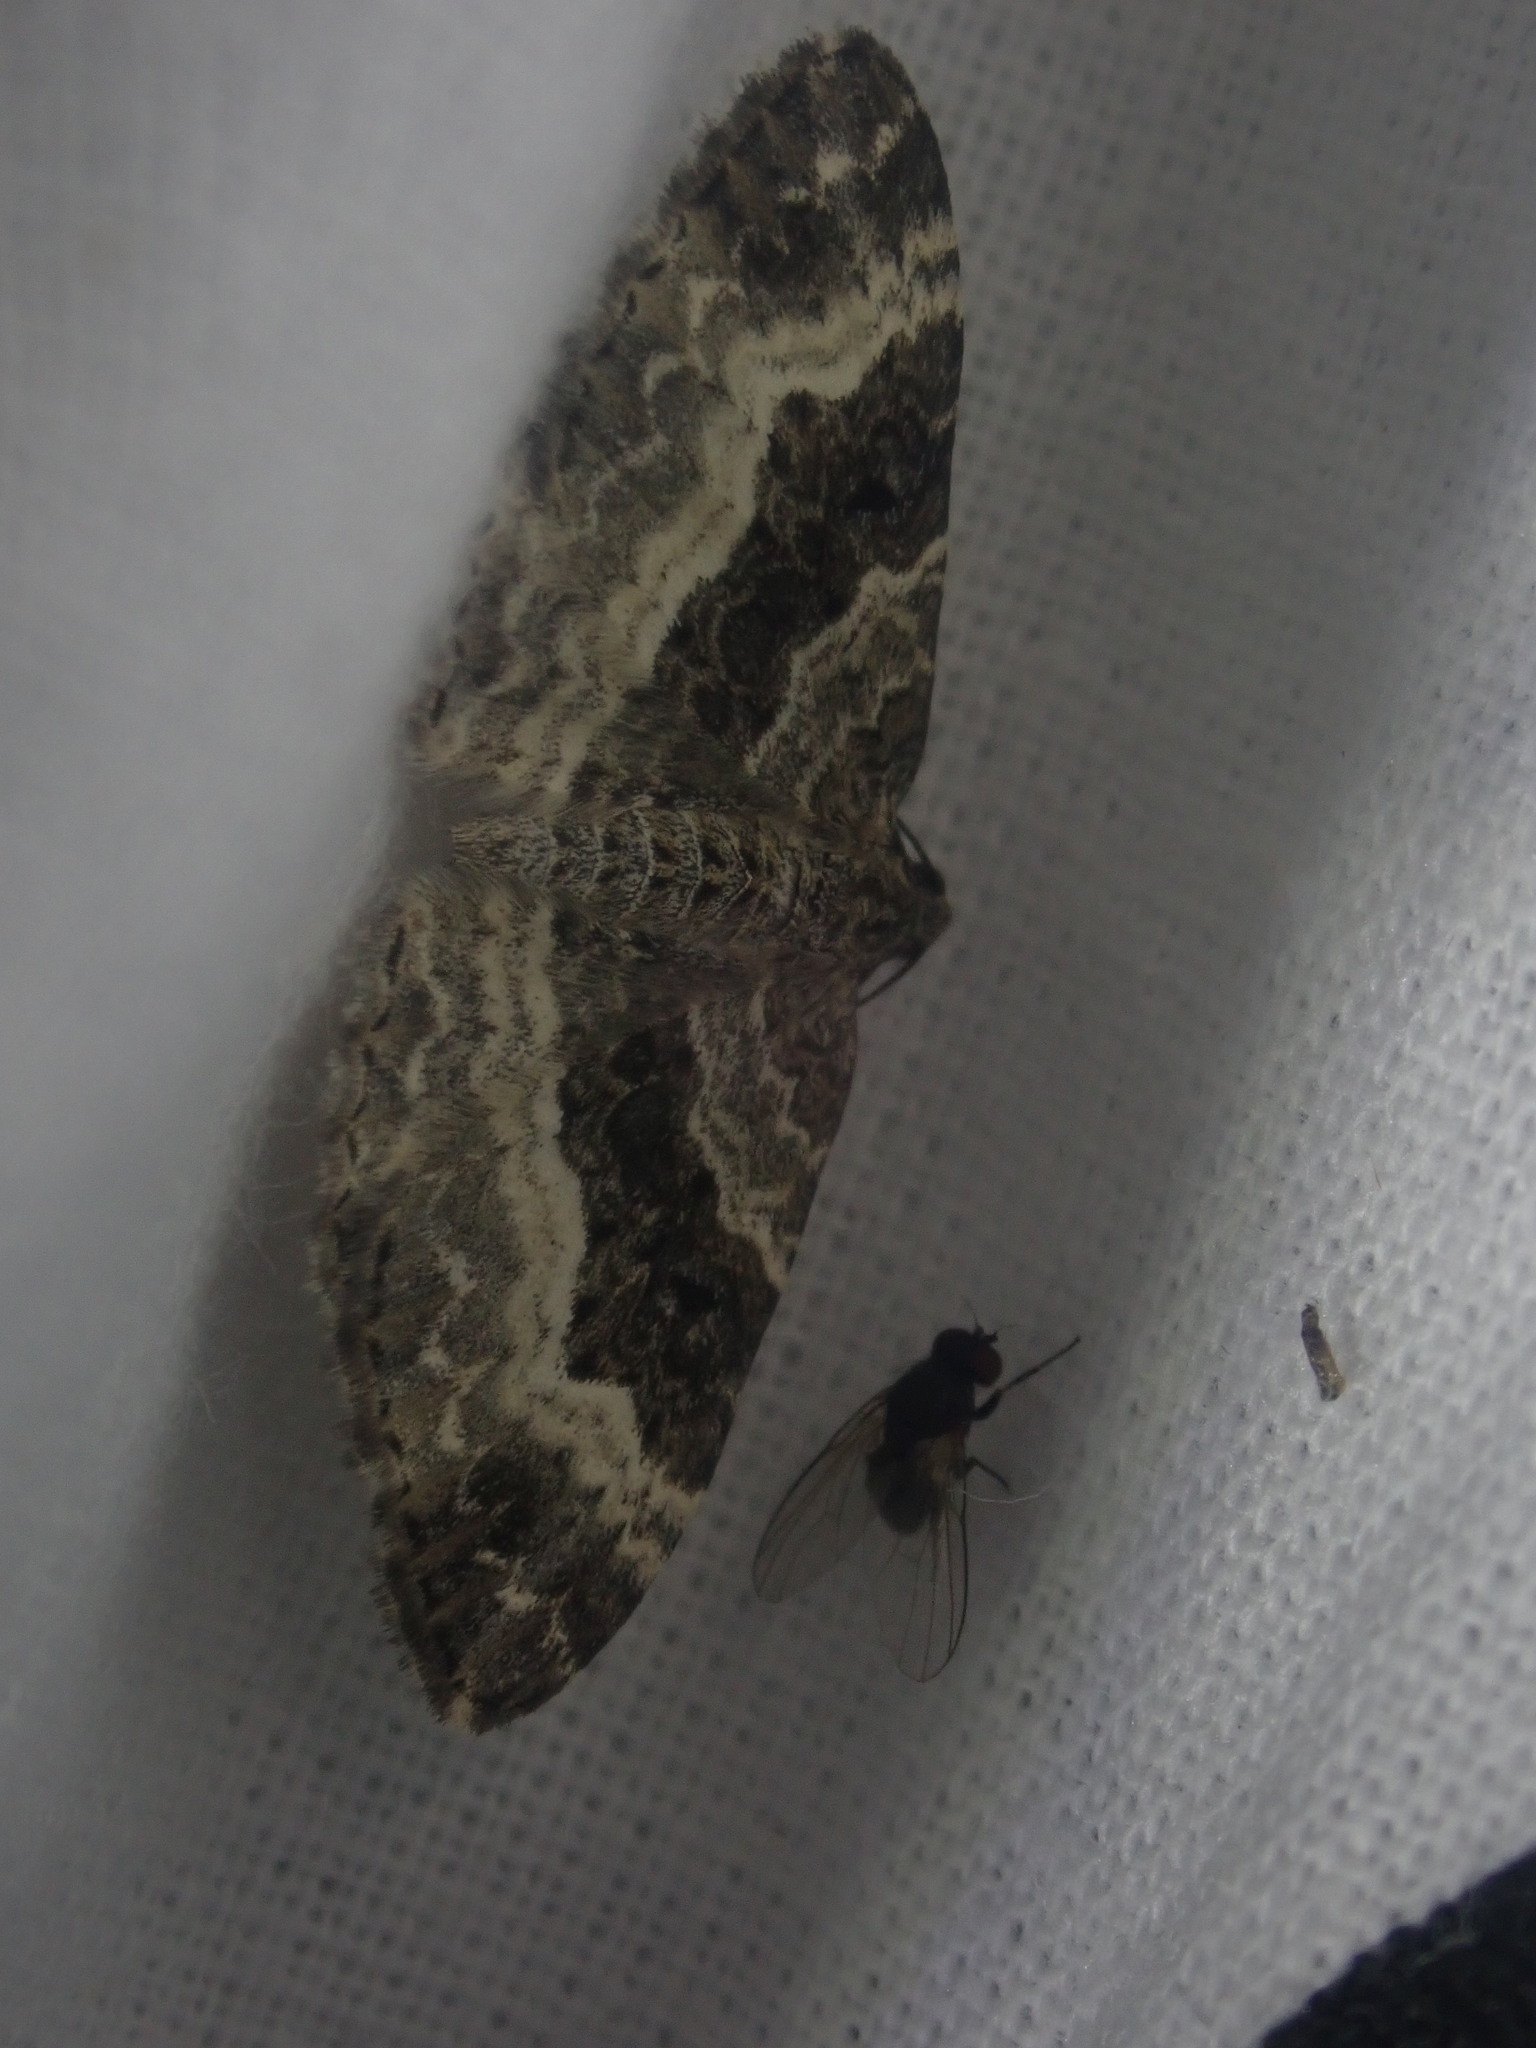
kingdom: Animalia
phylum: Arthropoda
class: Insecta
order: Lepidoptera
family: Geometridae
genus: Epirrhoe
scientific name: Epirrhoe alternata
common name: Common carpet
